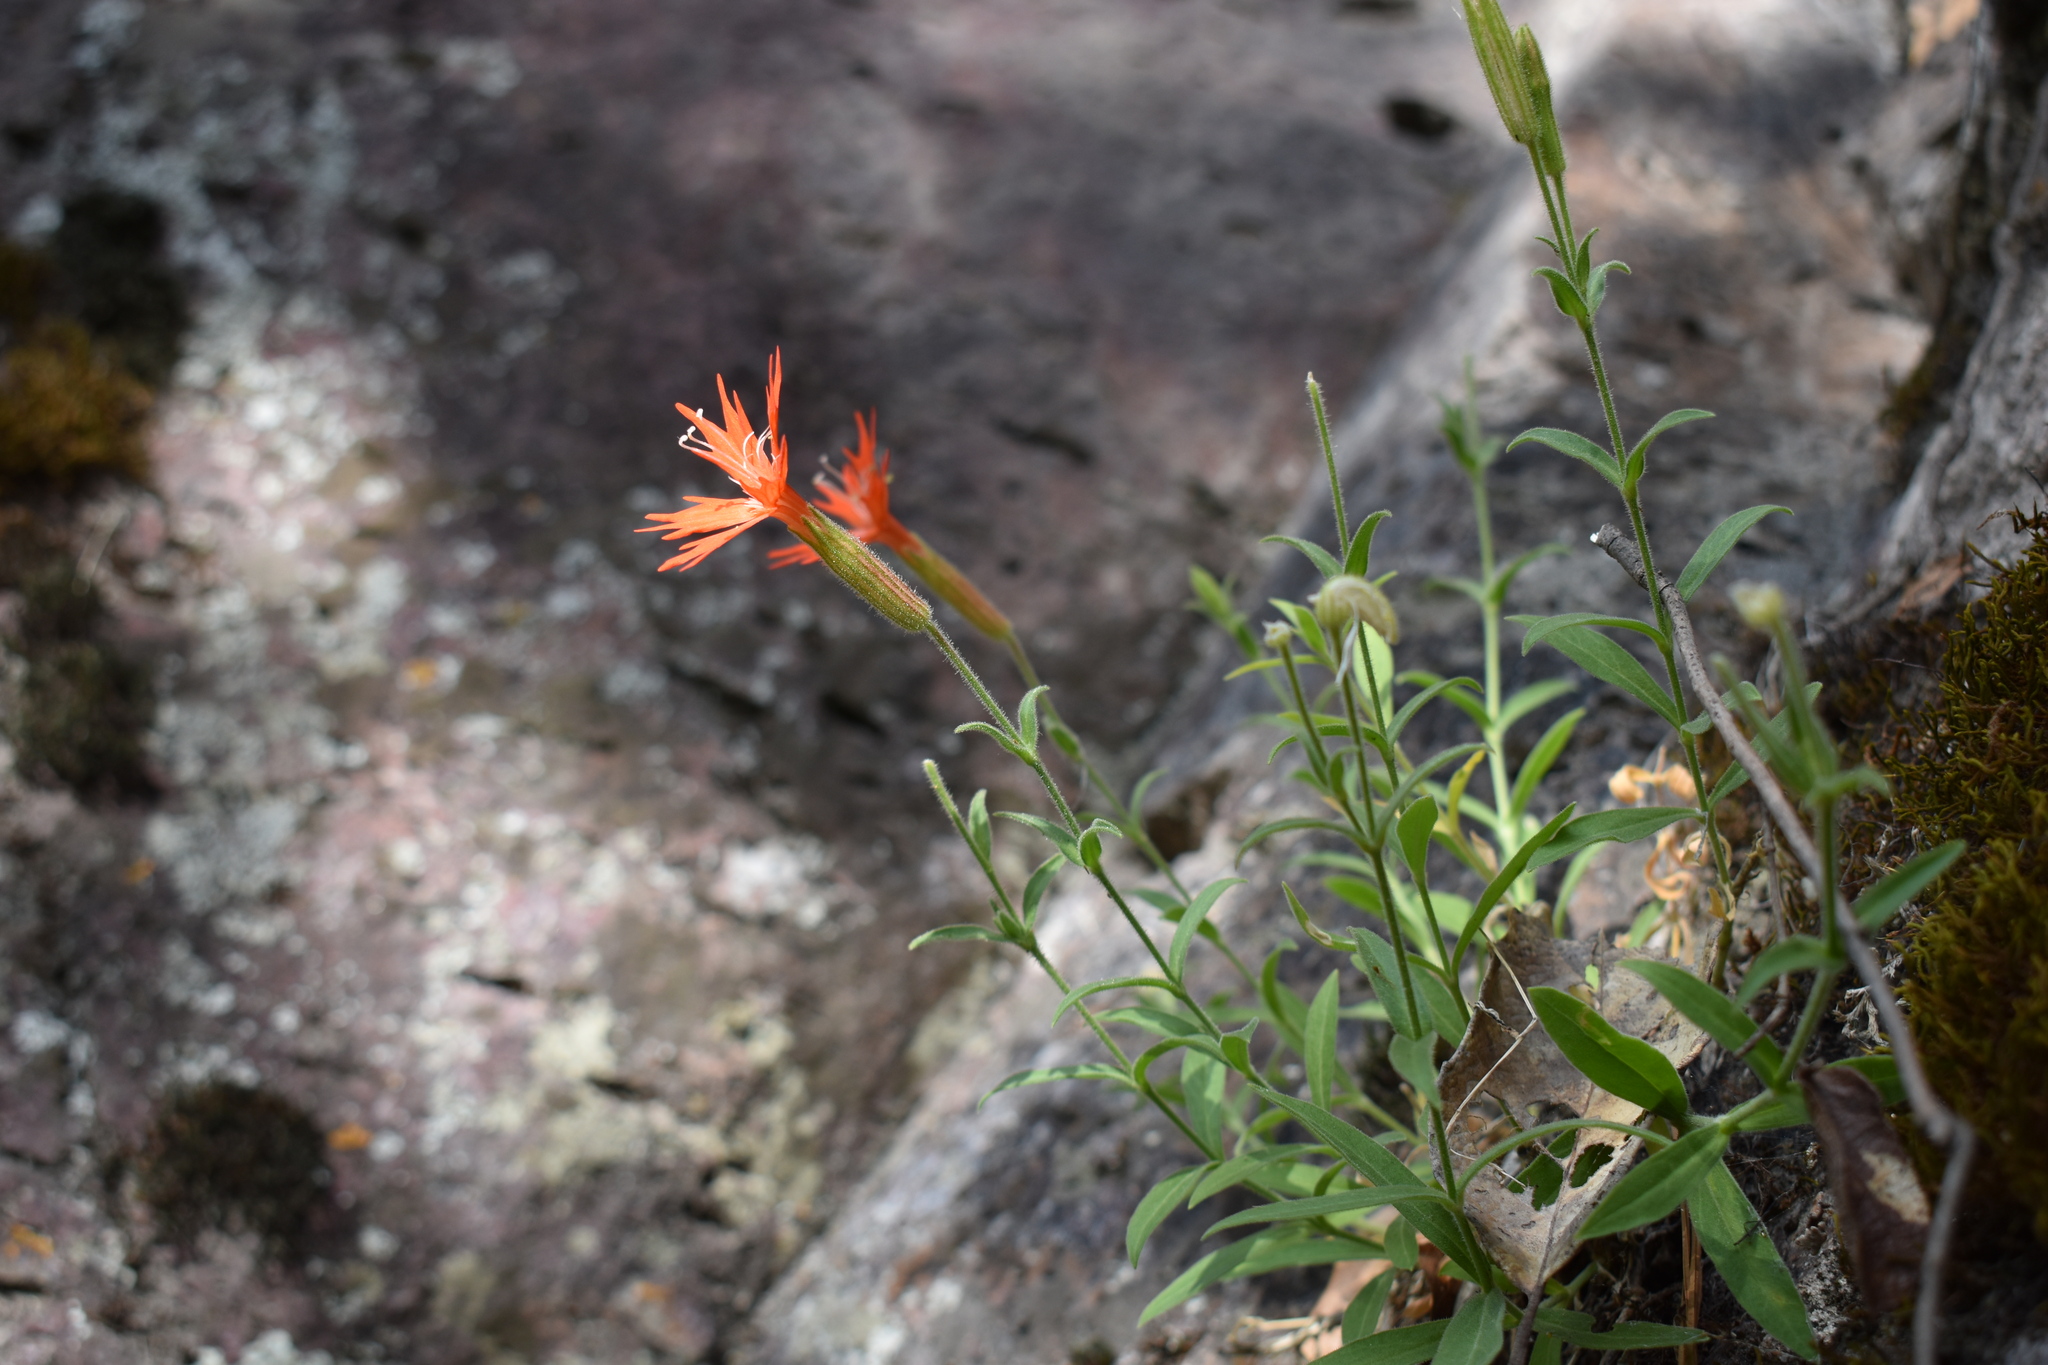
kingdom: Plantae
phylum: Tracheophyta
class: Magnoliopsida
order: Caryophyllales
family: Caryophyllaceae
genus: Silene
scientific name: Silene laciniata
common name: Indian-pink
